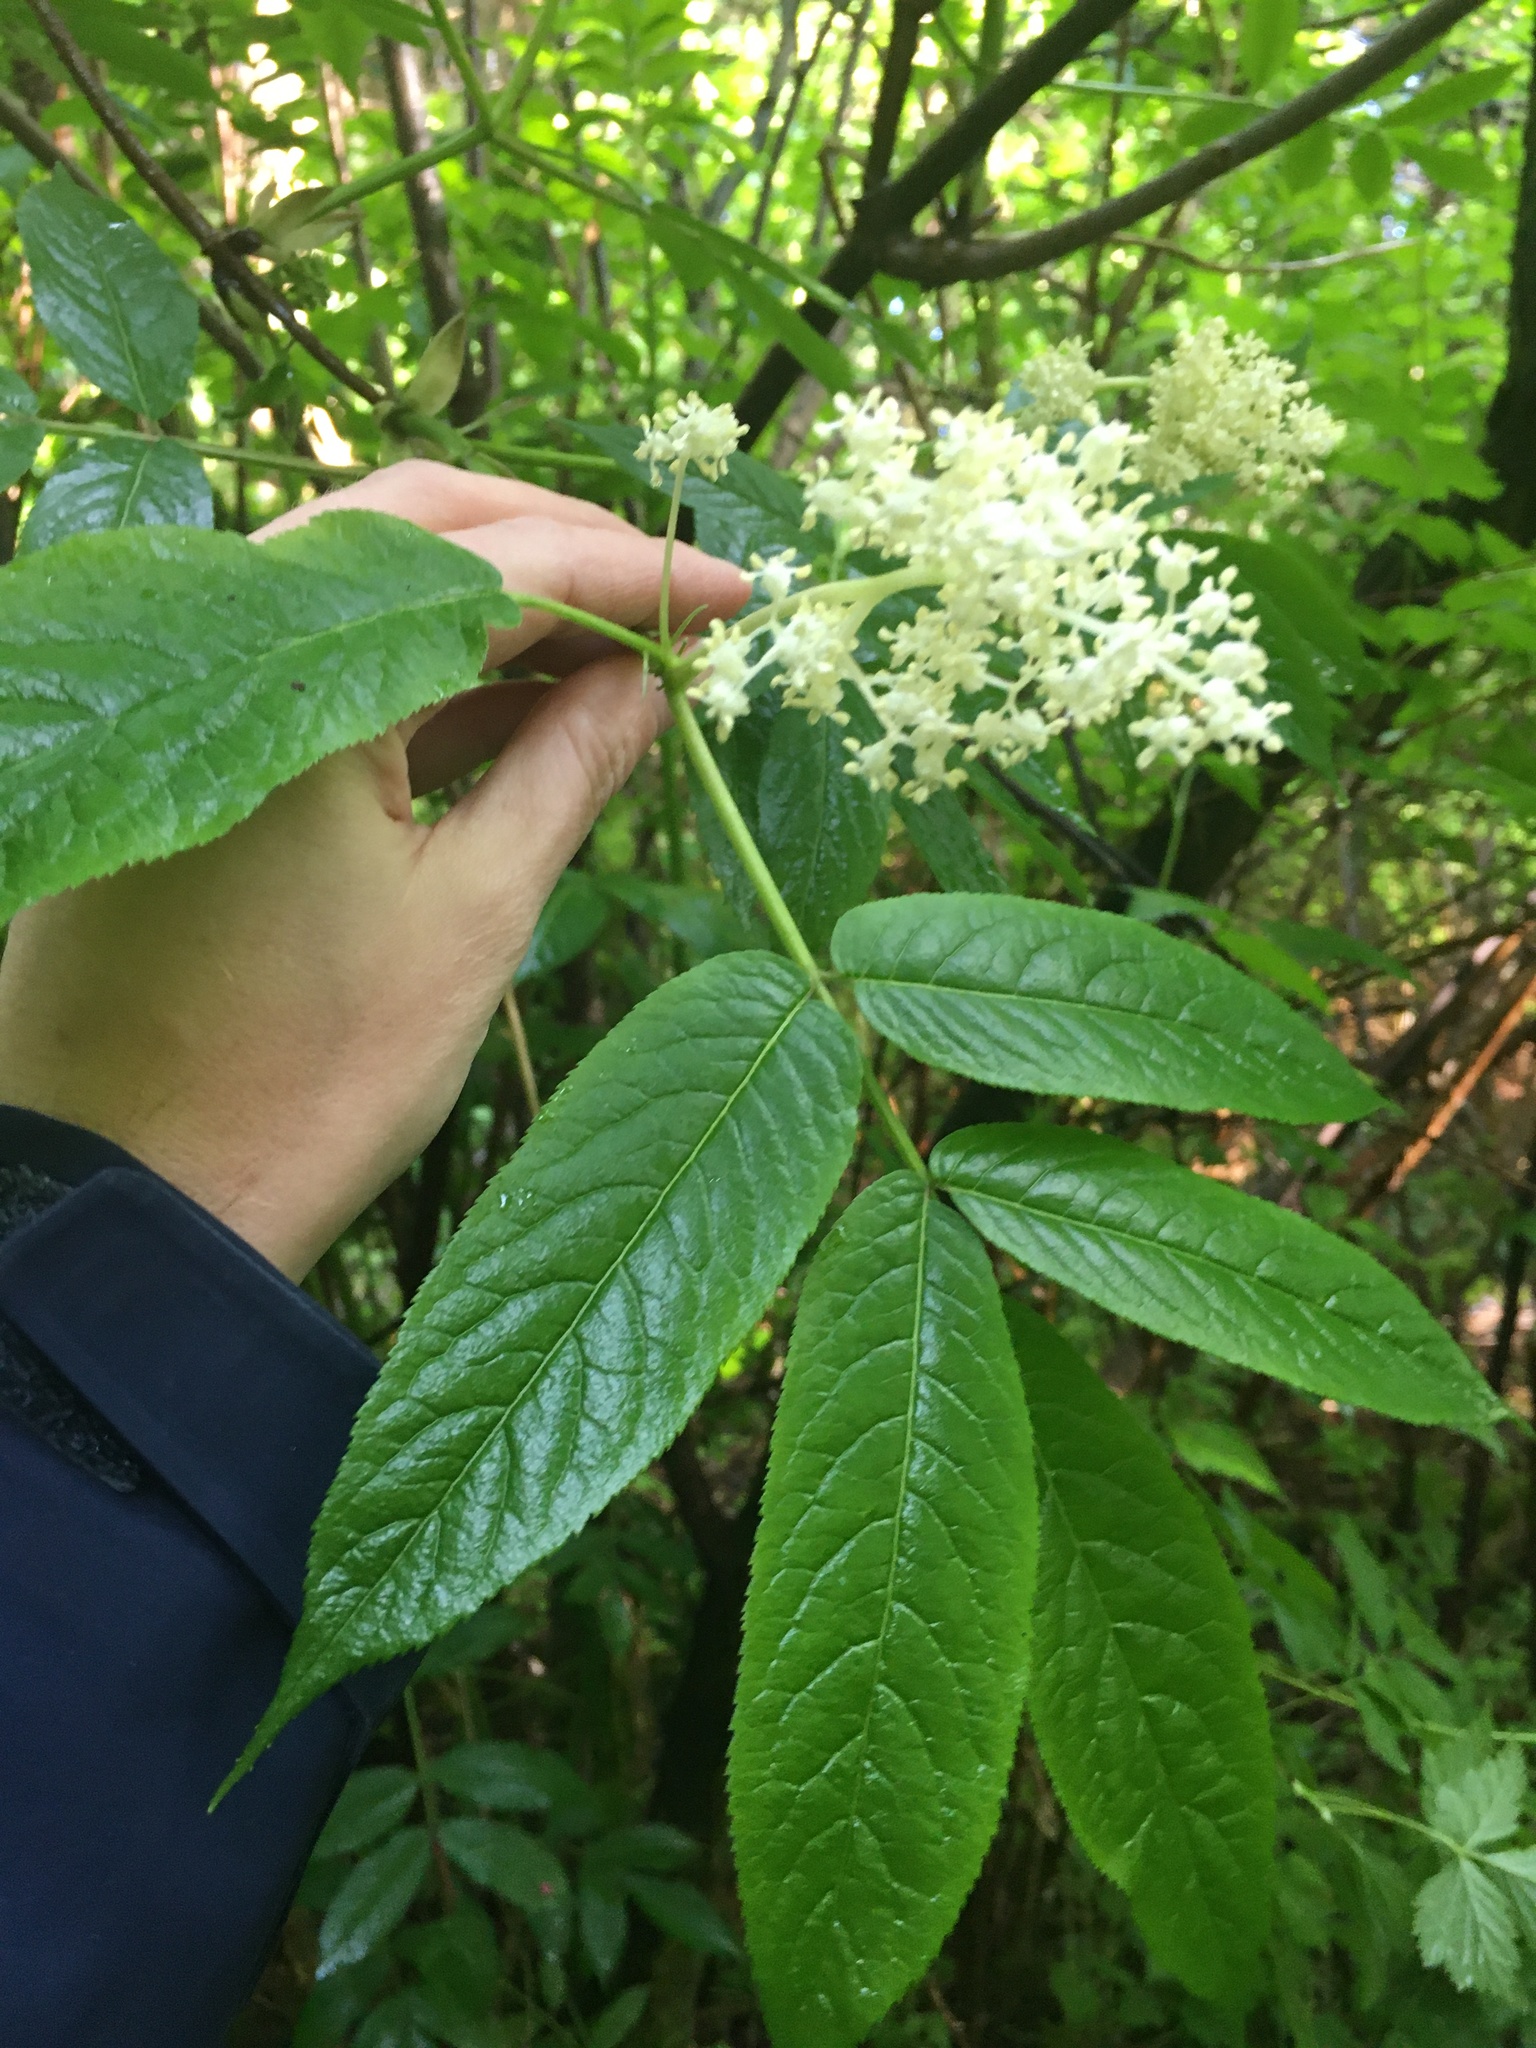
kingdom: Plantae
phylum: Tracheophyta
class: Magnoliopsida
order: Dipsacales
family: Viburnaceae
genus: Sambucus
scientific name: Sambucus racemosa
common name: Red-berried elder
